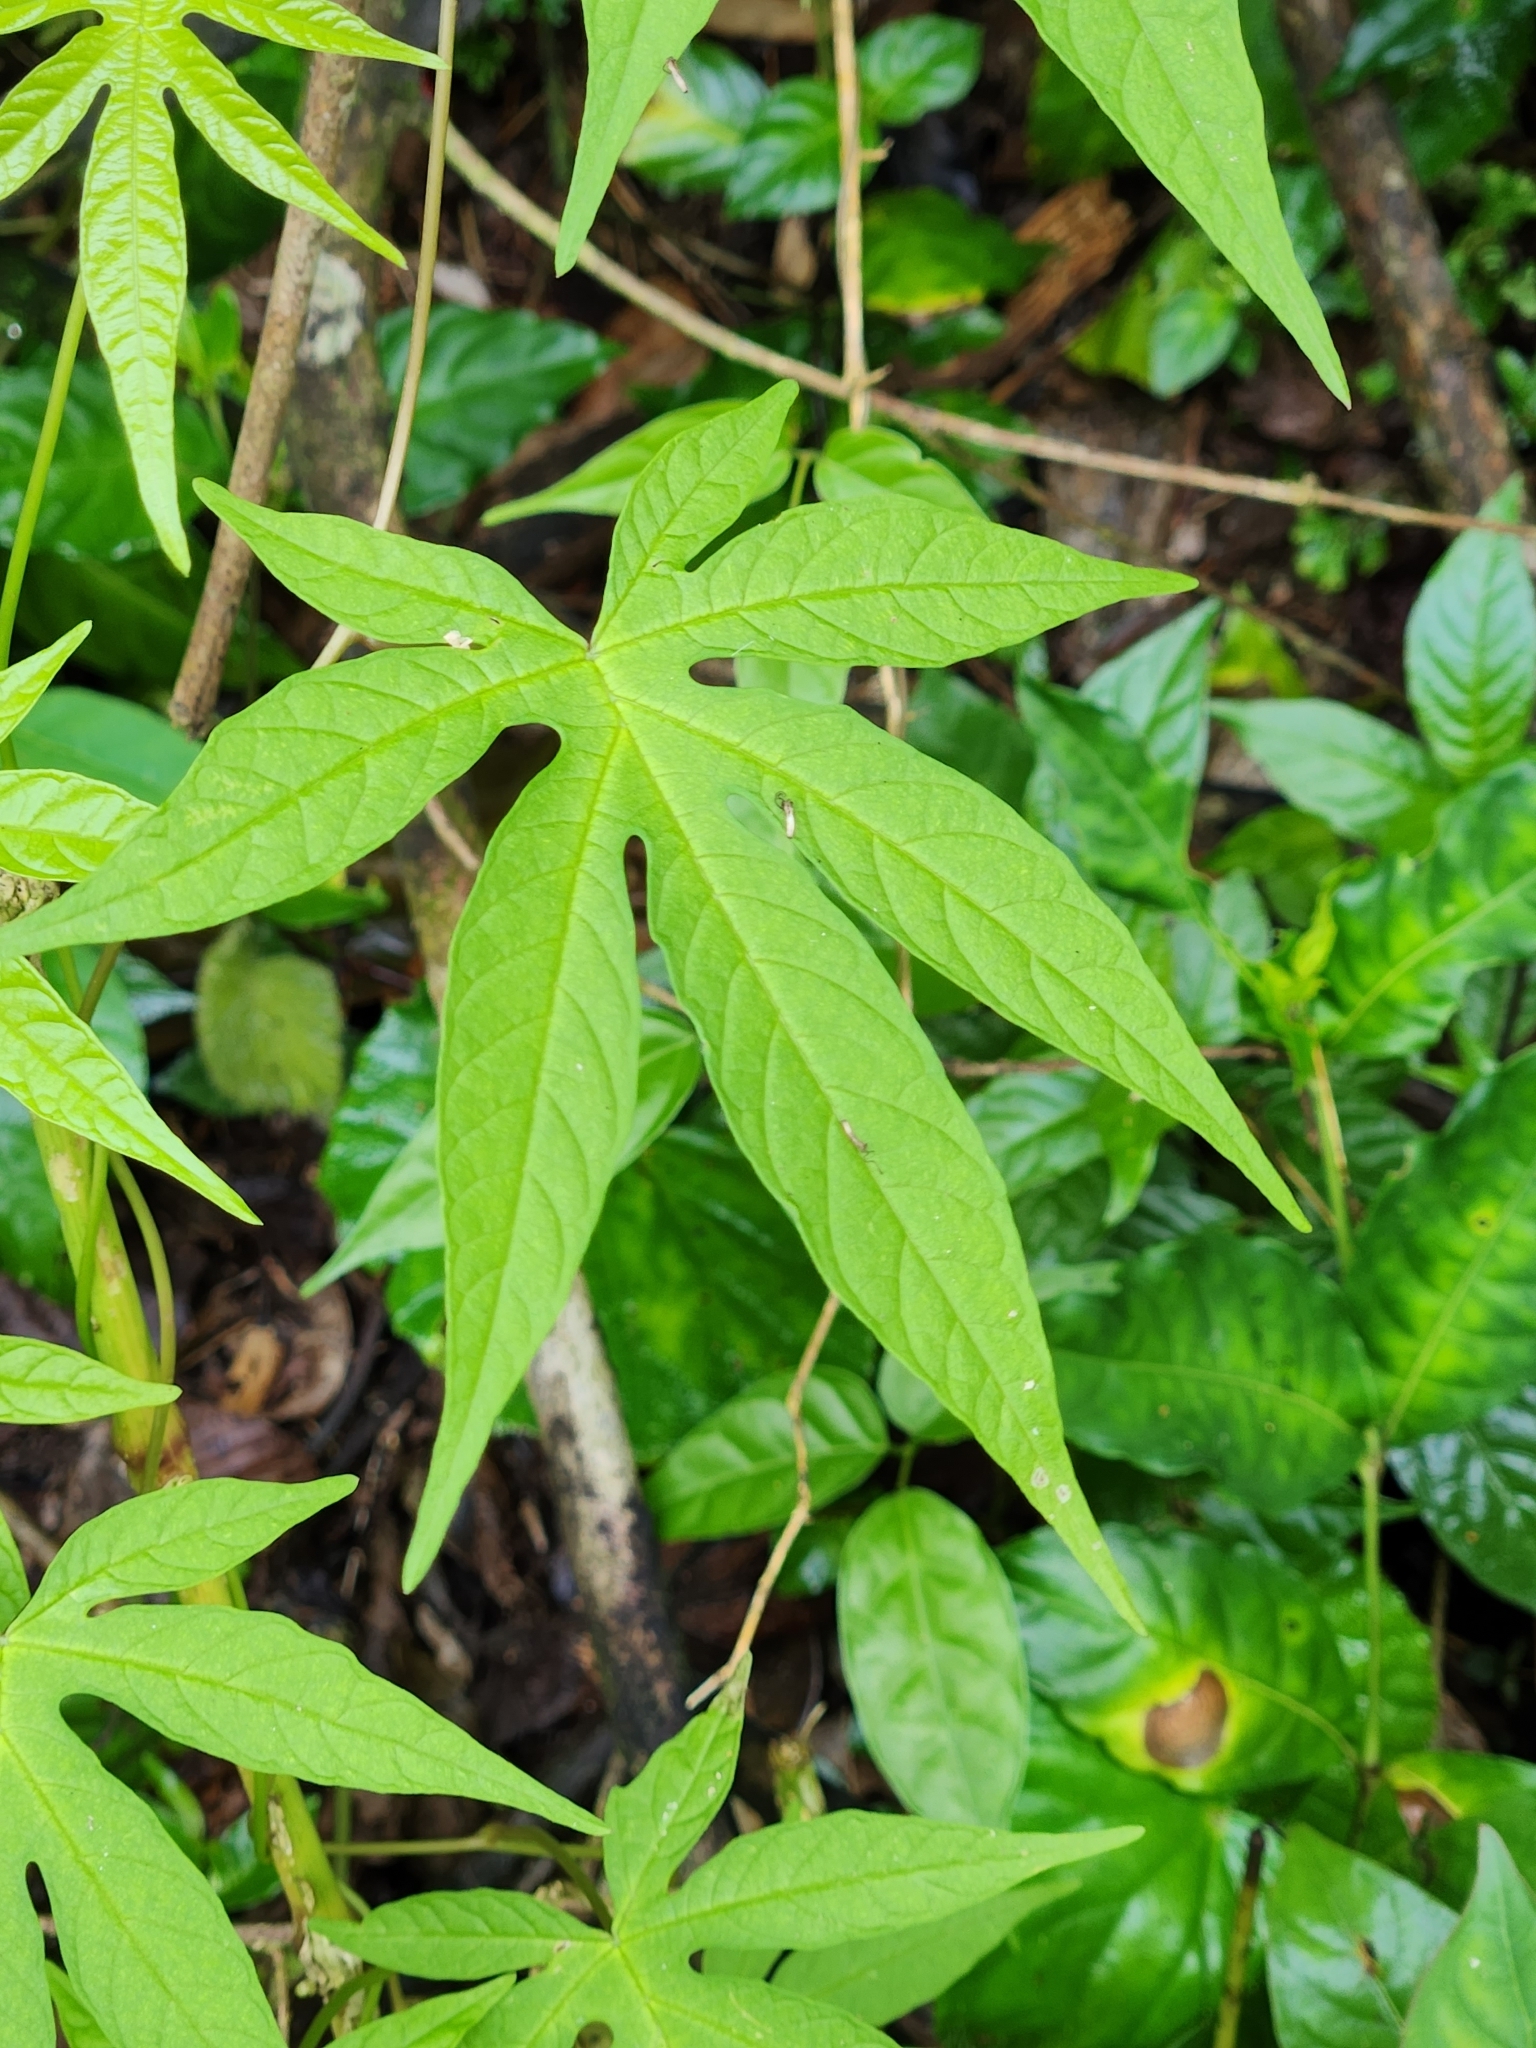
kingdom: Plantae
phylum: Tracheophyta
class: Magnoliopsida
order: Solanales
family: Convolvulaceae
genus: Distimake
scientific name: Distimake tuberosus
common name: Spanish arborvine
